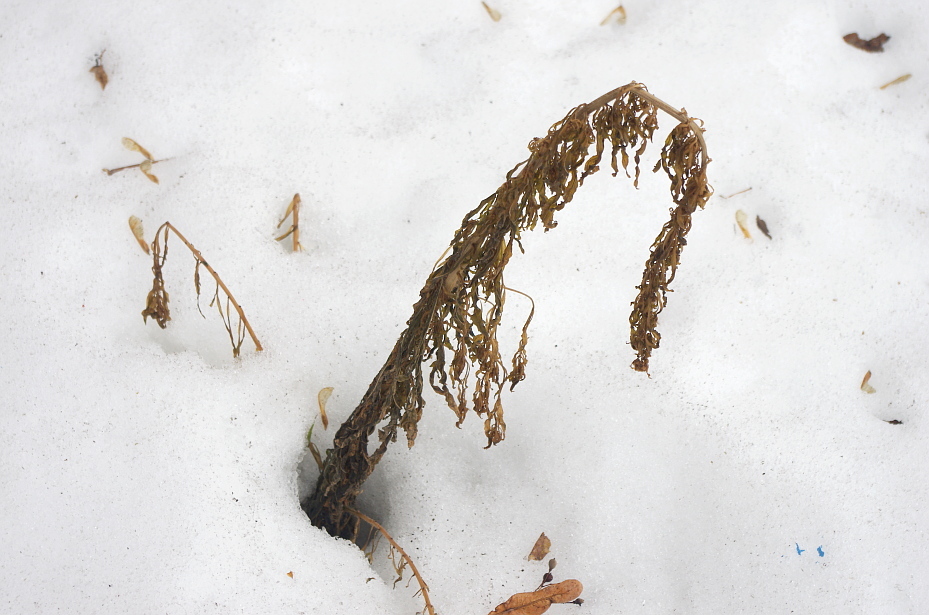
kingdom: Plantae
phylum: Tracheophyta
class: Magnoliopsida
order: Asterales
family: Asteraceae
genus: Erigeron
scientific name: Erigeron canadensis
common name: Canadian fleabane
